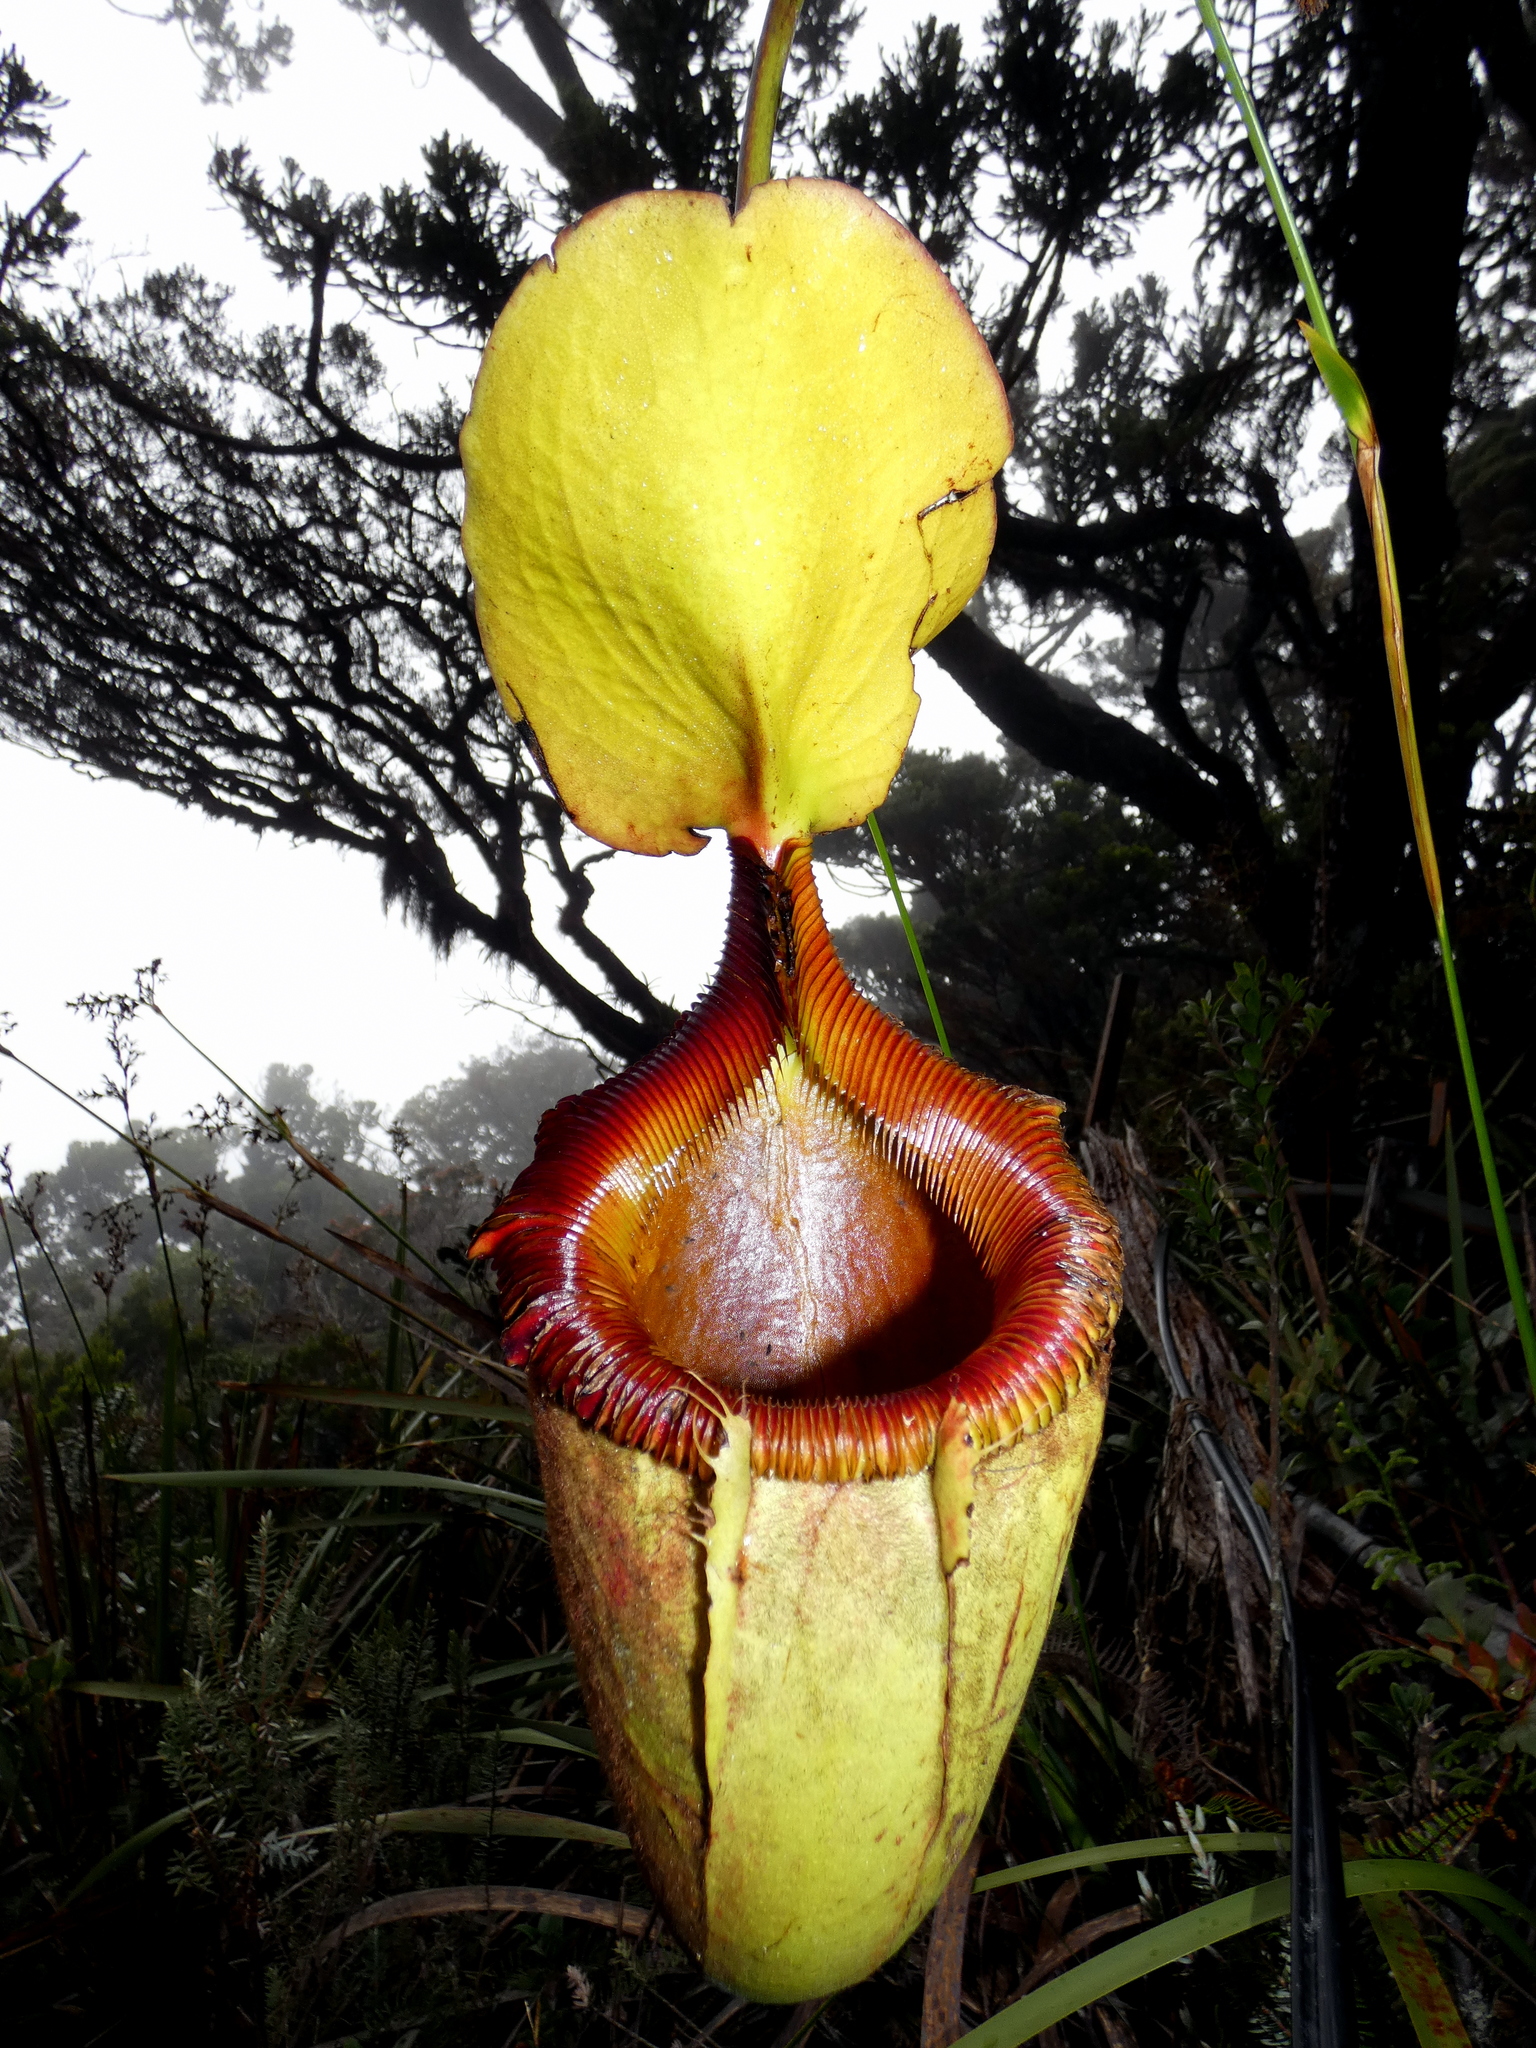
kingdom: Plantae
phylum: Tracheophyta
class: Magnoliopsida
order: Caryophyllales
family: Nepenthaceae
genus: Nepenthes
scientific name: Nepenthes kinabaluensis
